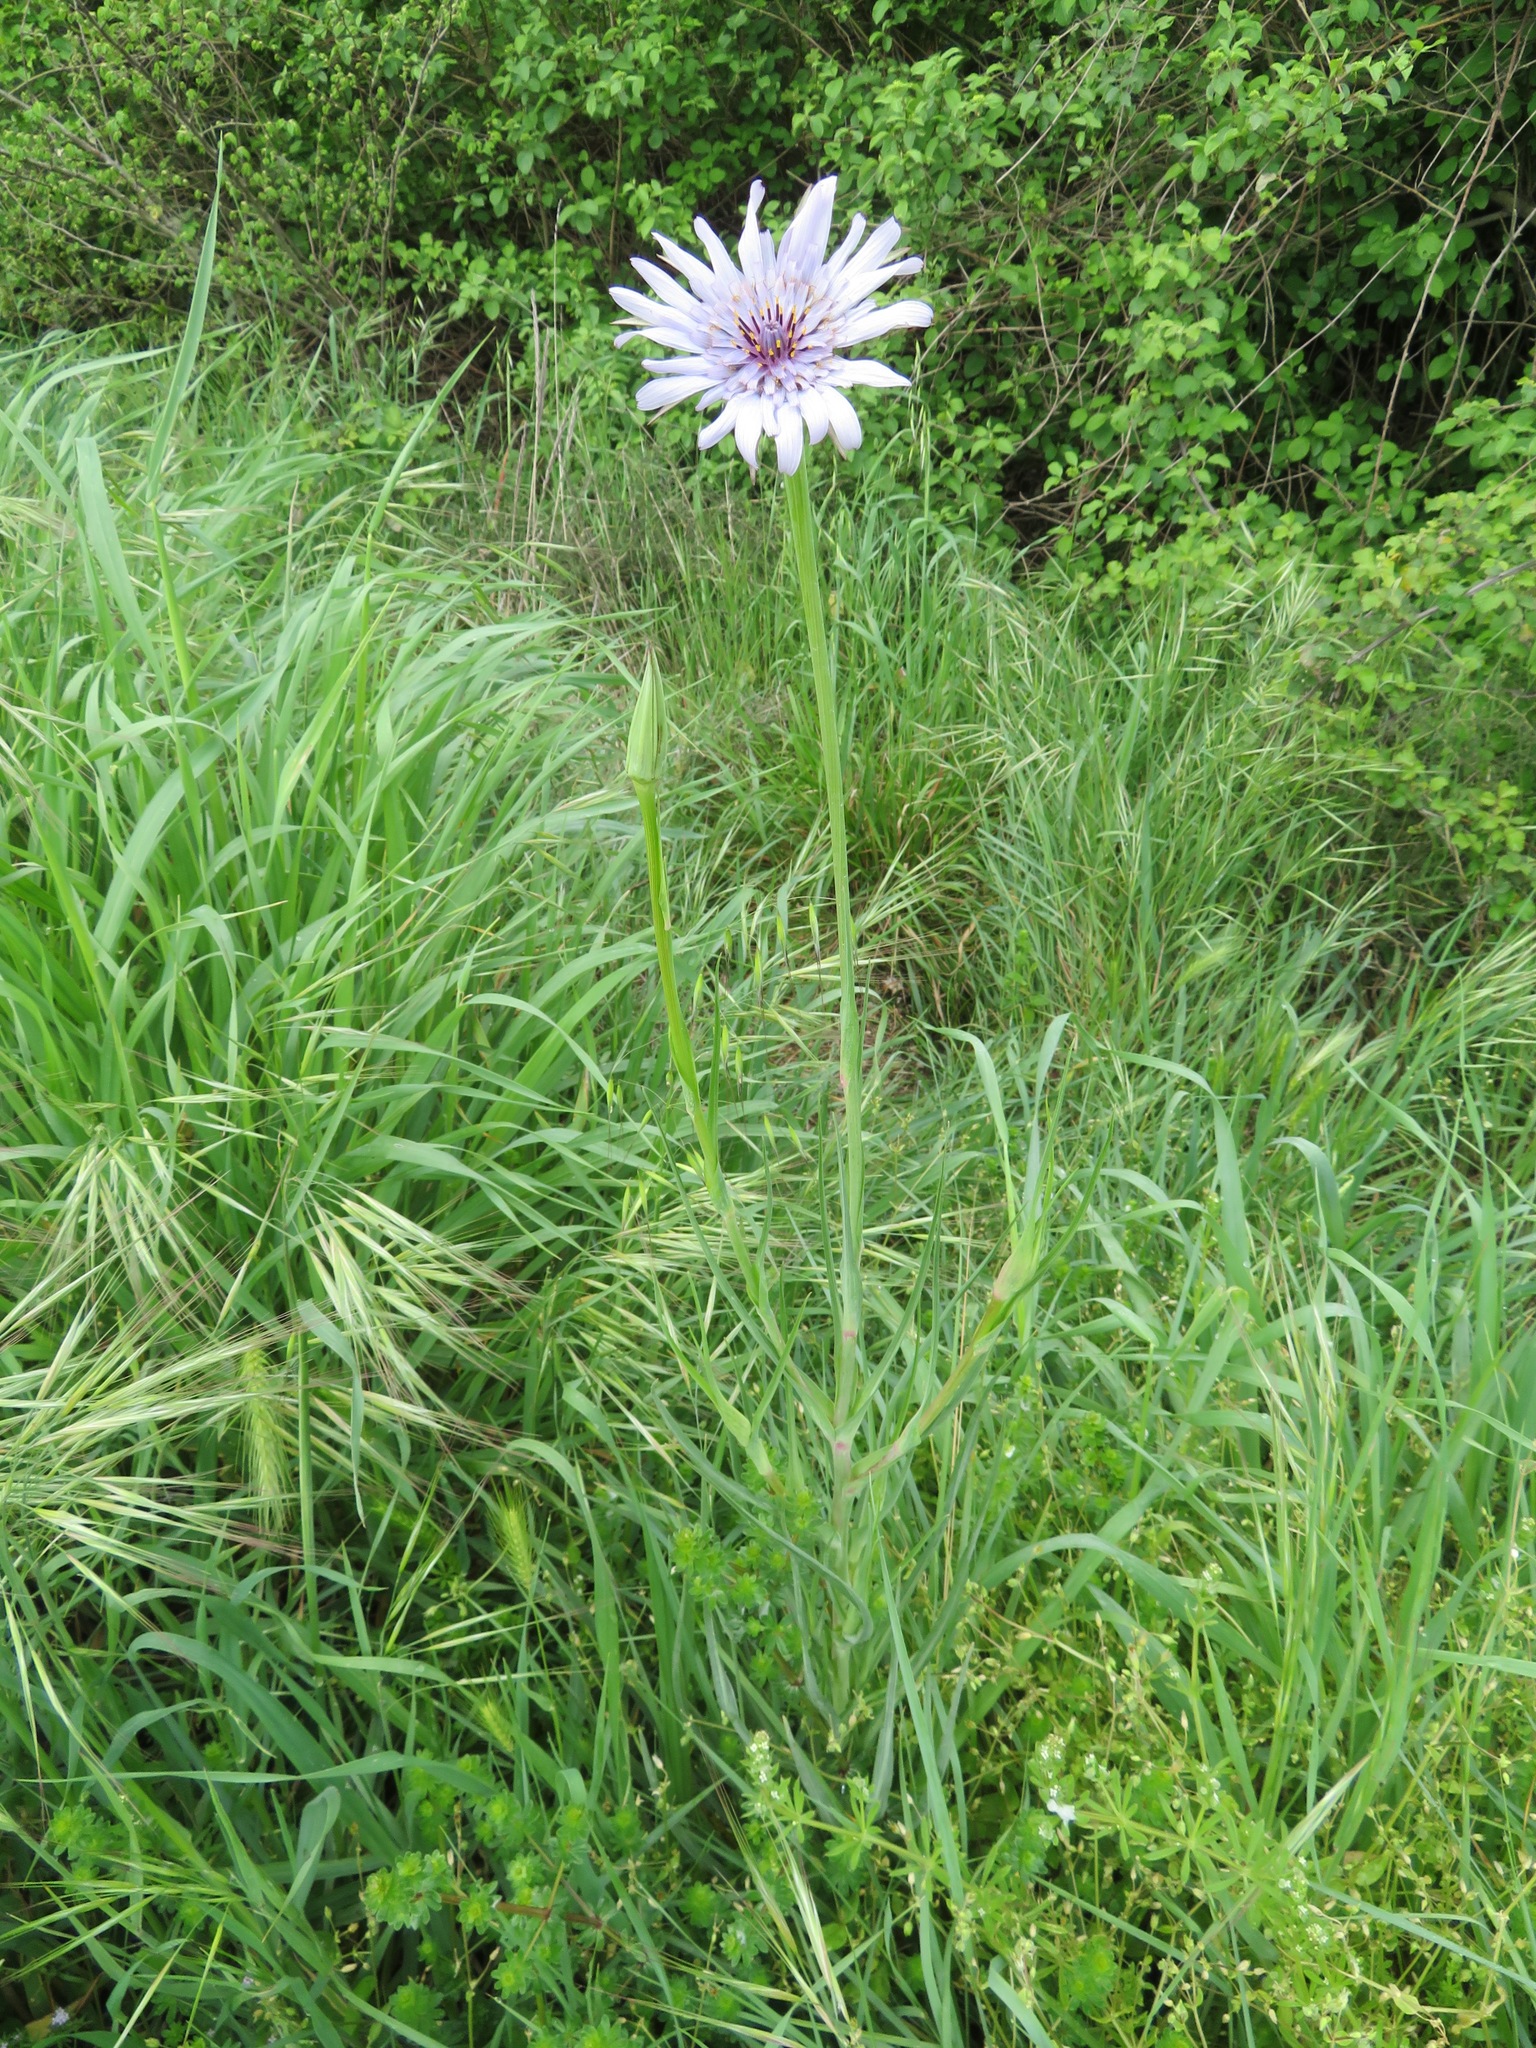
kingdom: Plantae
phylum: Tracheophyta
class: Magnoliopsida
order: Asterales
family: Asteraceae
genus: Tragopogon
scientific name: Tragopogon porrifolius
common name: Salsify
